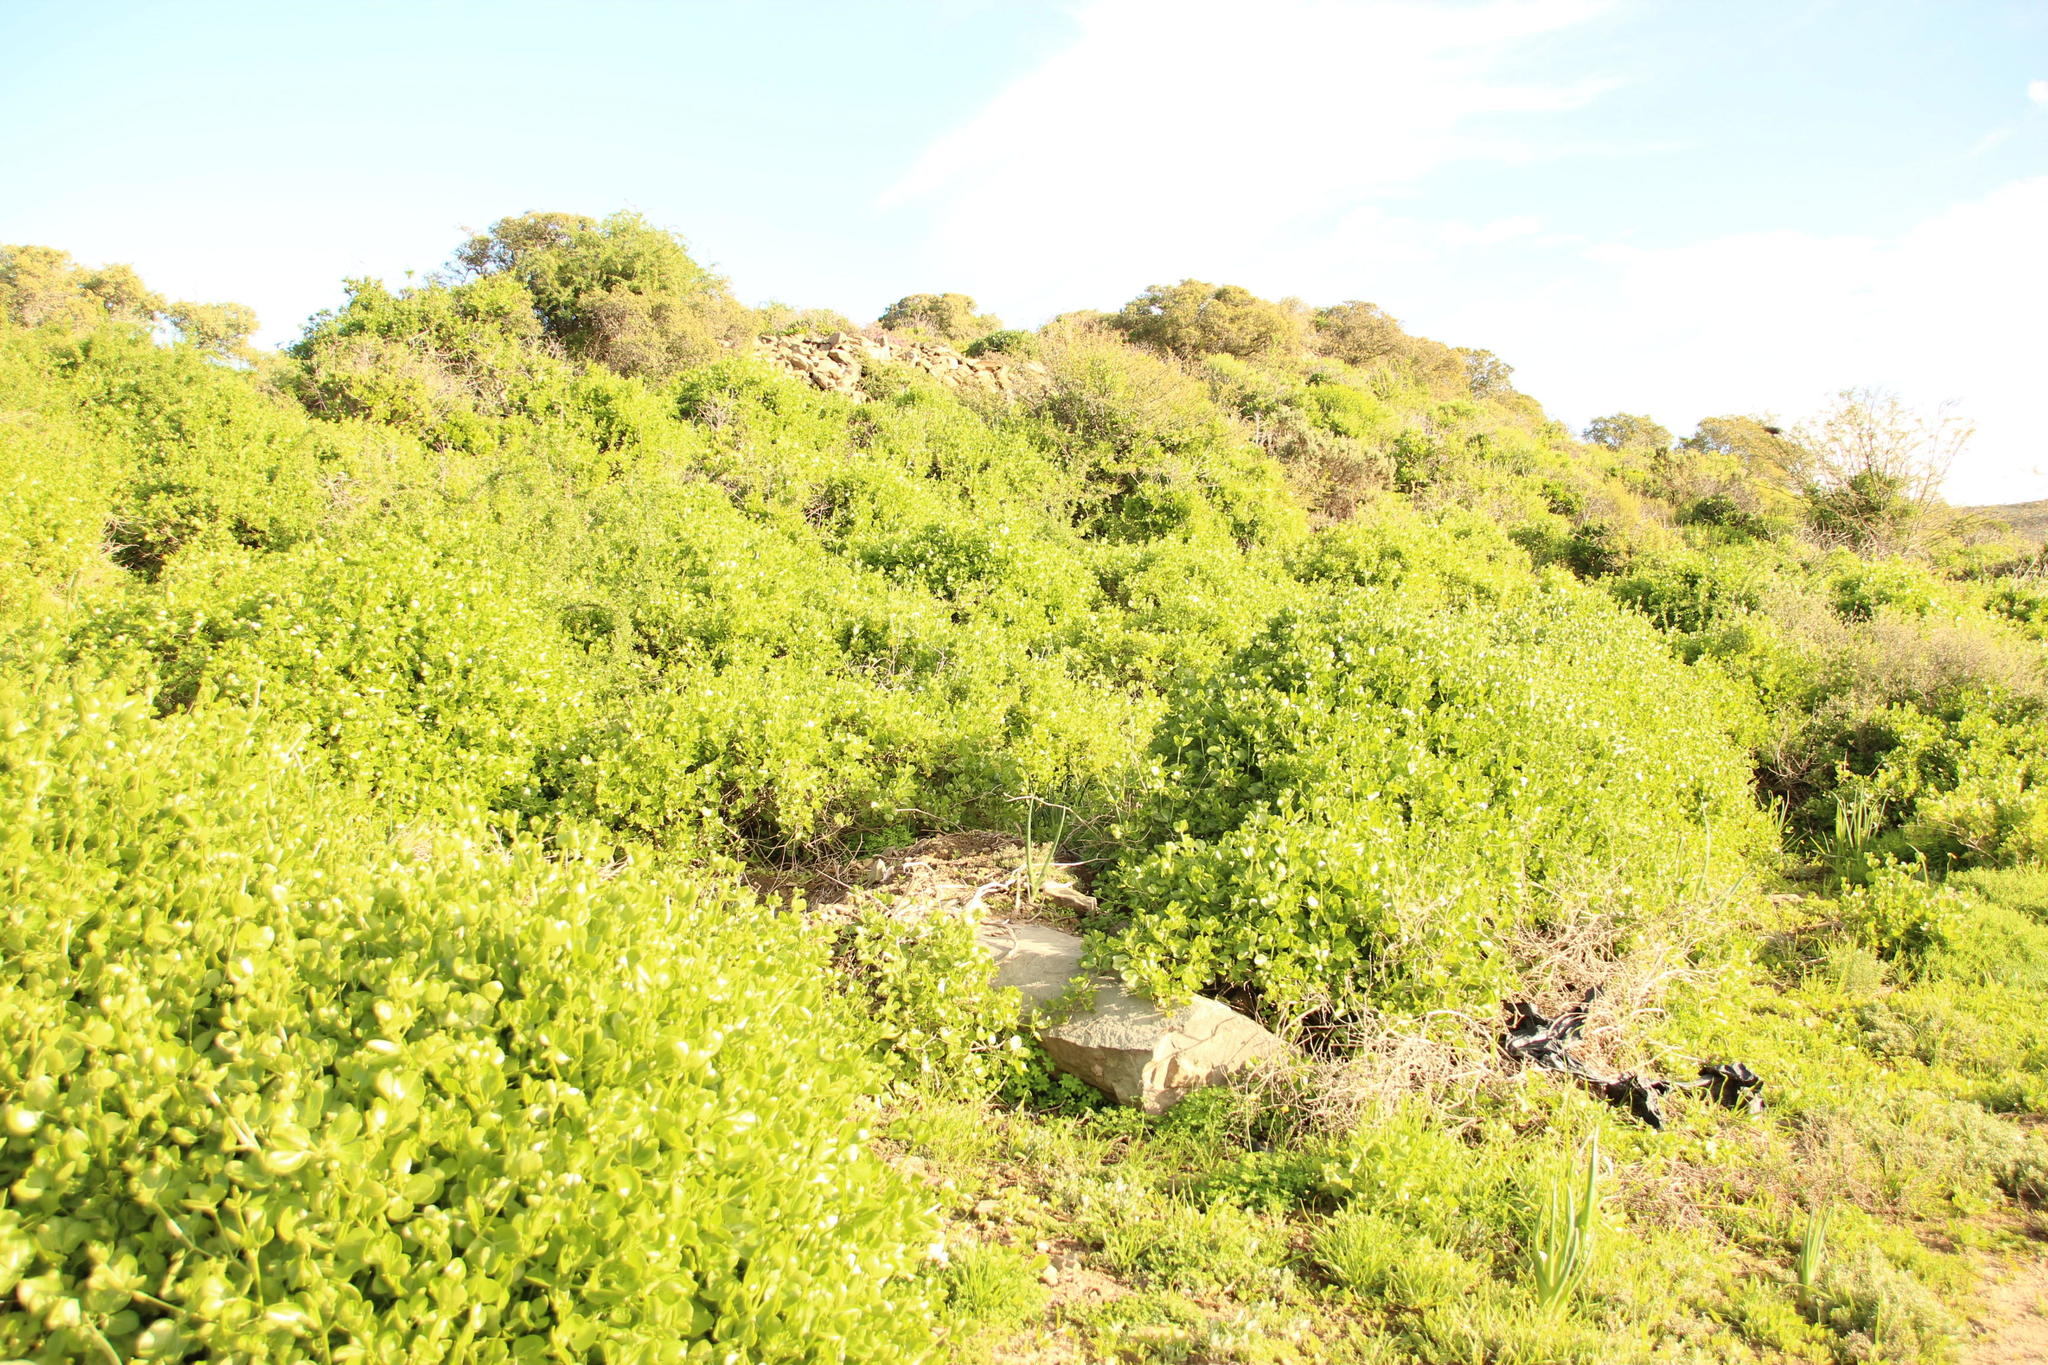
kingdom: Plantae
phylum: Tracheophyta
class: Magnoliopsida
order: Zygophyllales
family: Zygophyllaceae
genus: Roepera
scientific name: Roepera foetida
